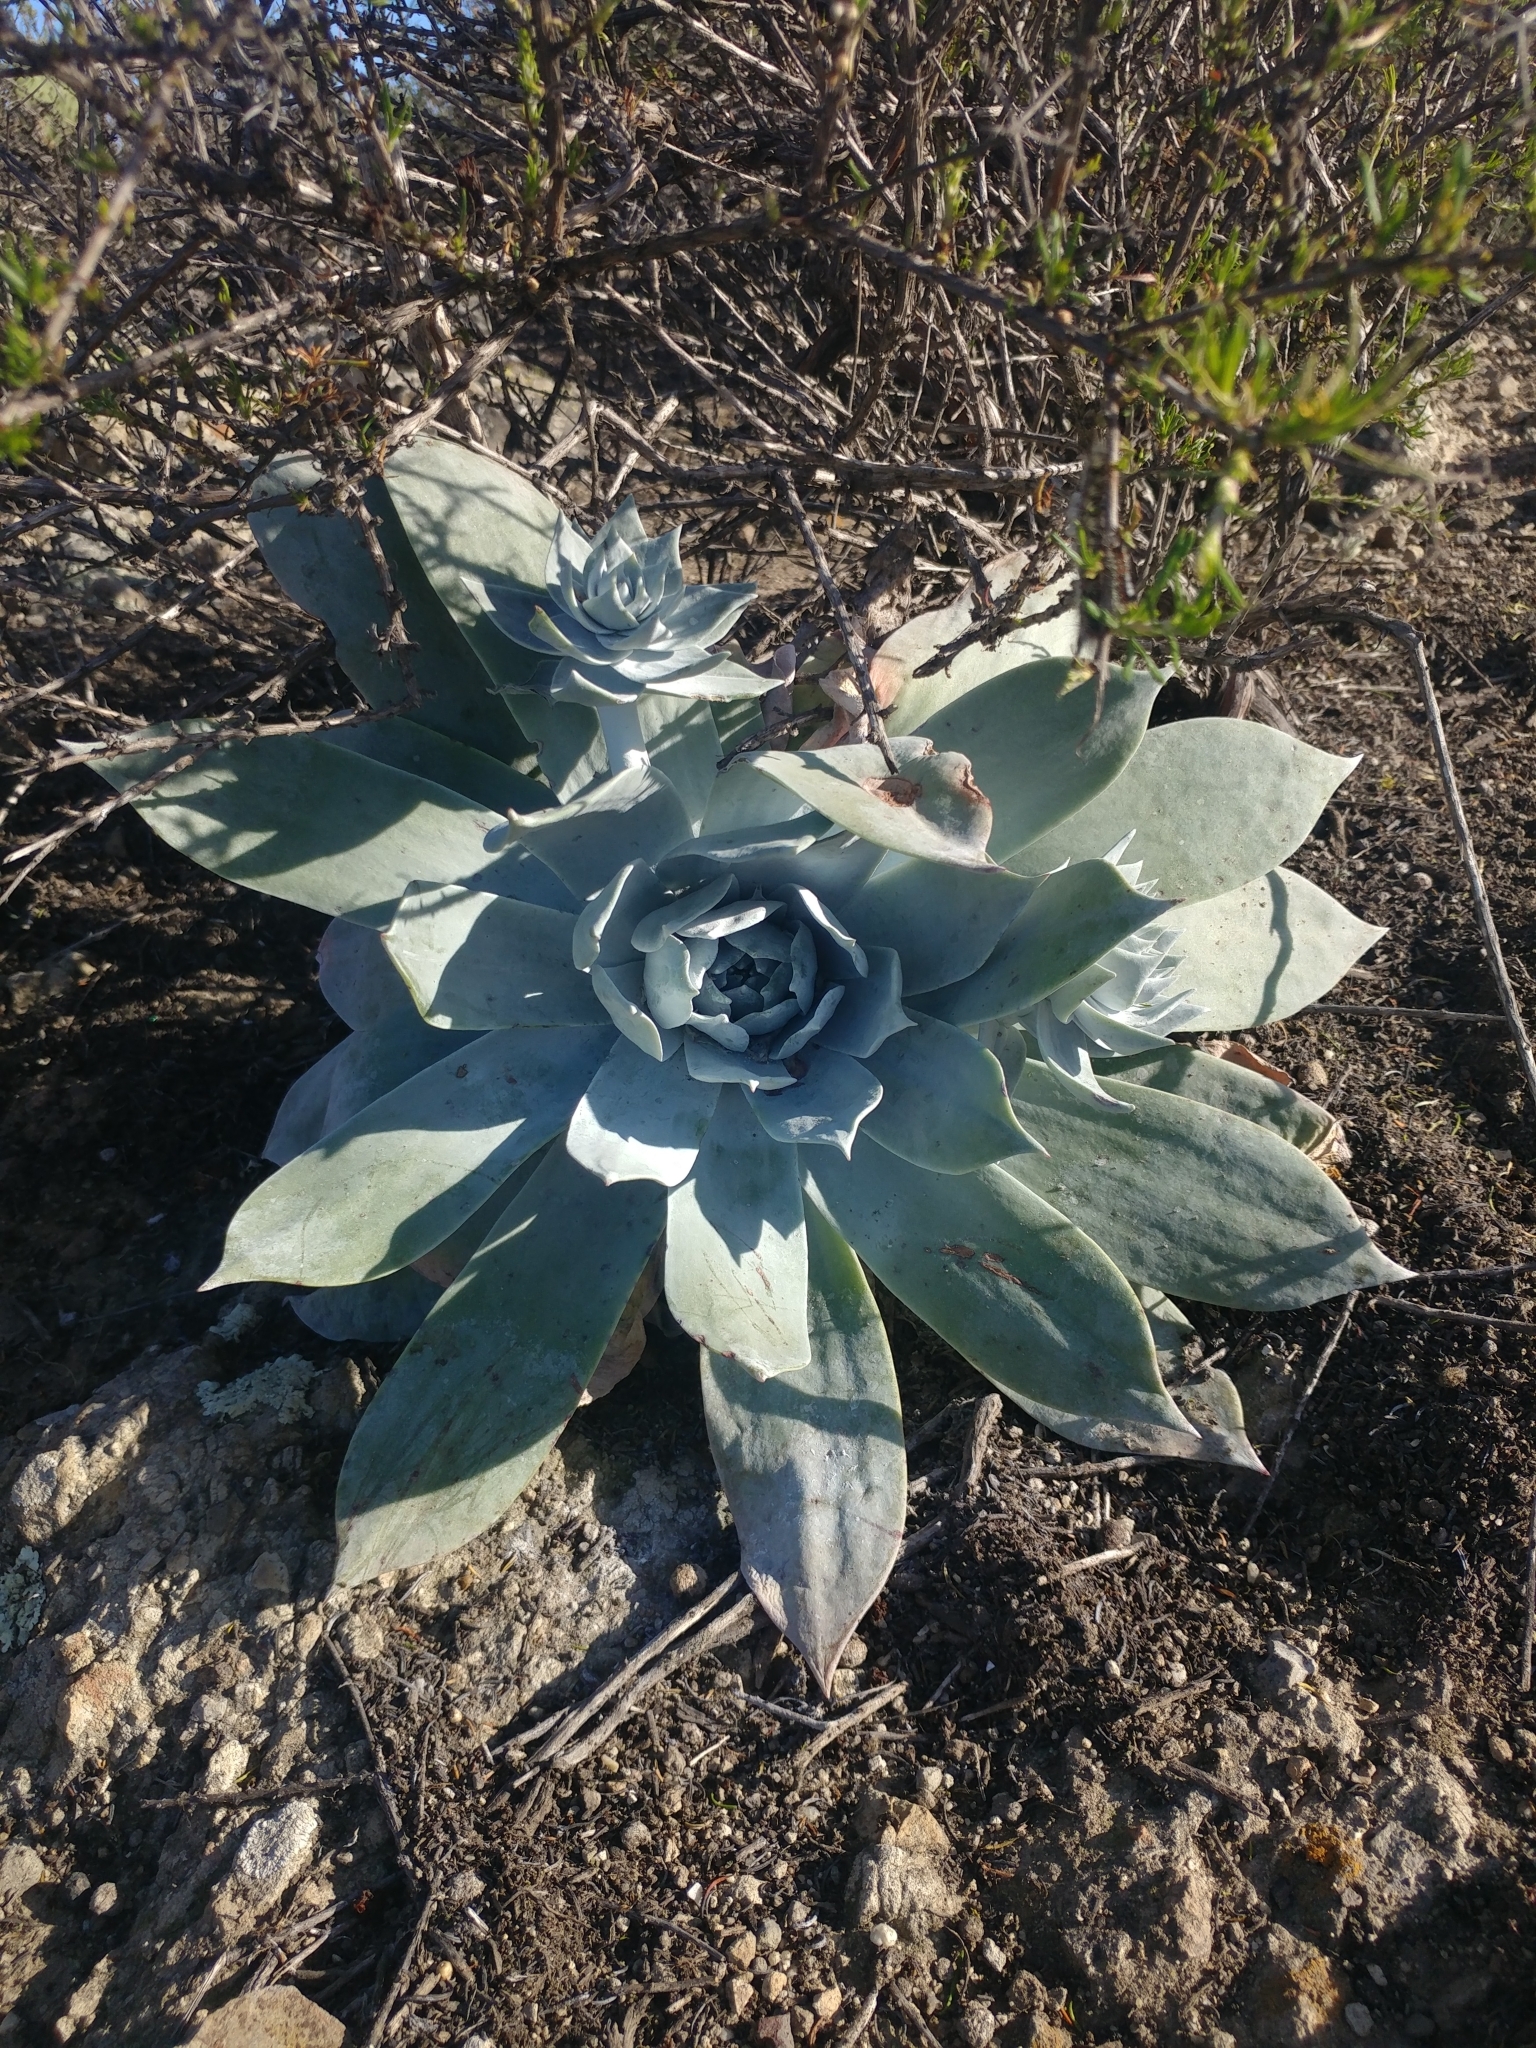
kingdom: Plantae
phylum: Tracheophyta
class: Magnoliopsida
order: Saxifragales
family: Crassulaceae
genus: Dudleya
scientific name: Dudleya pulverulenta
